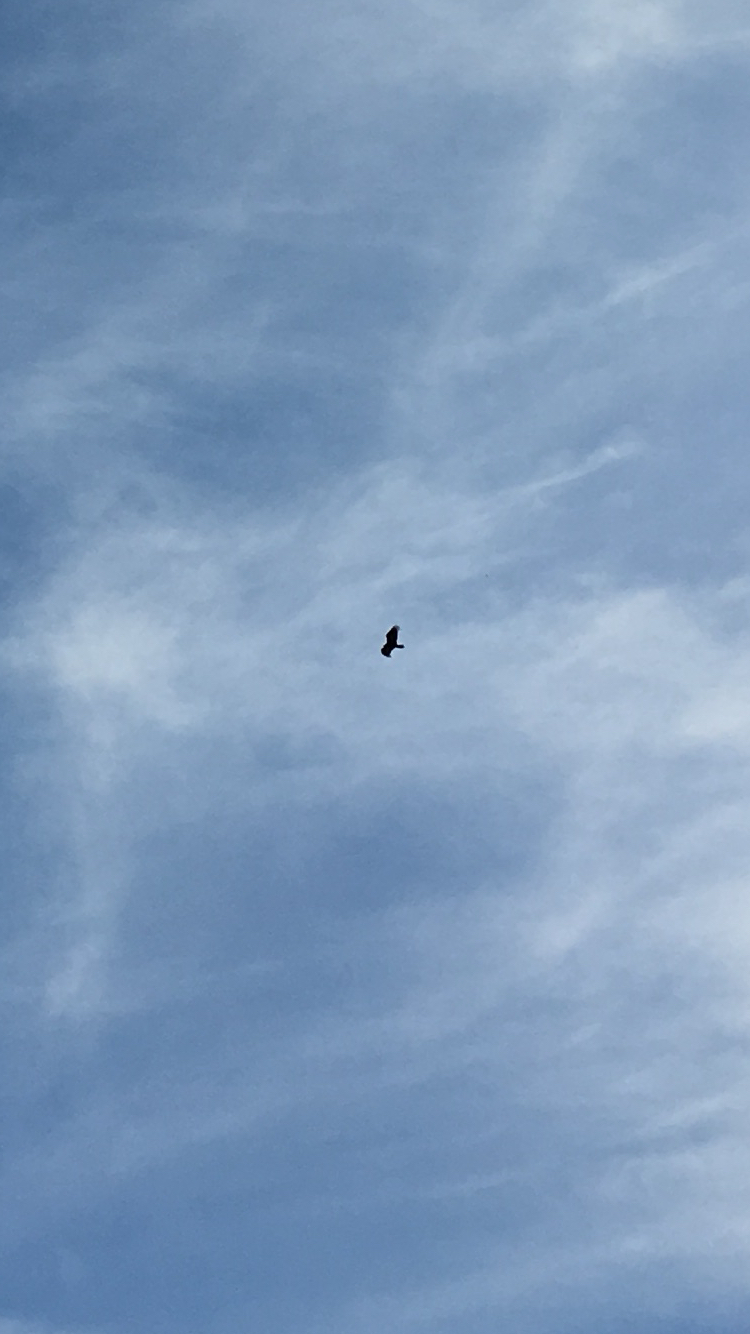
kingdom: Animalia
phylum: Chordata
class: Aves
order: Accipitriformes
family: Cathartidae
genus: Cathartes
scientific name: Cathartes aura
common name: Turkey vulture
